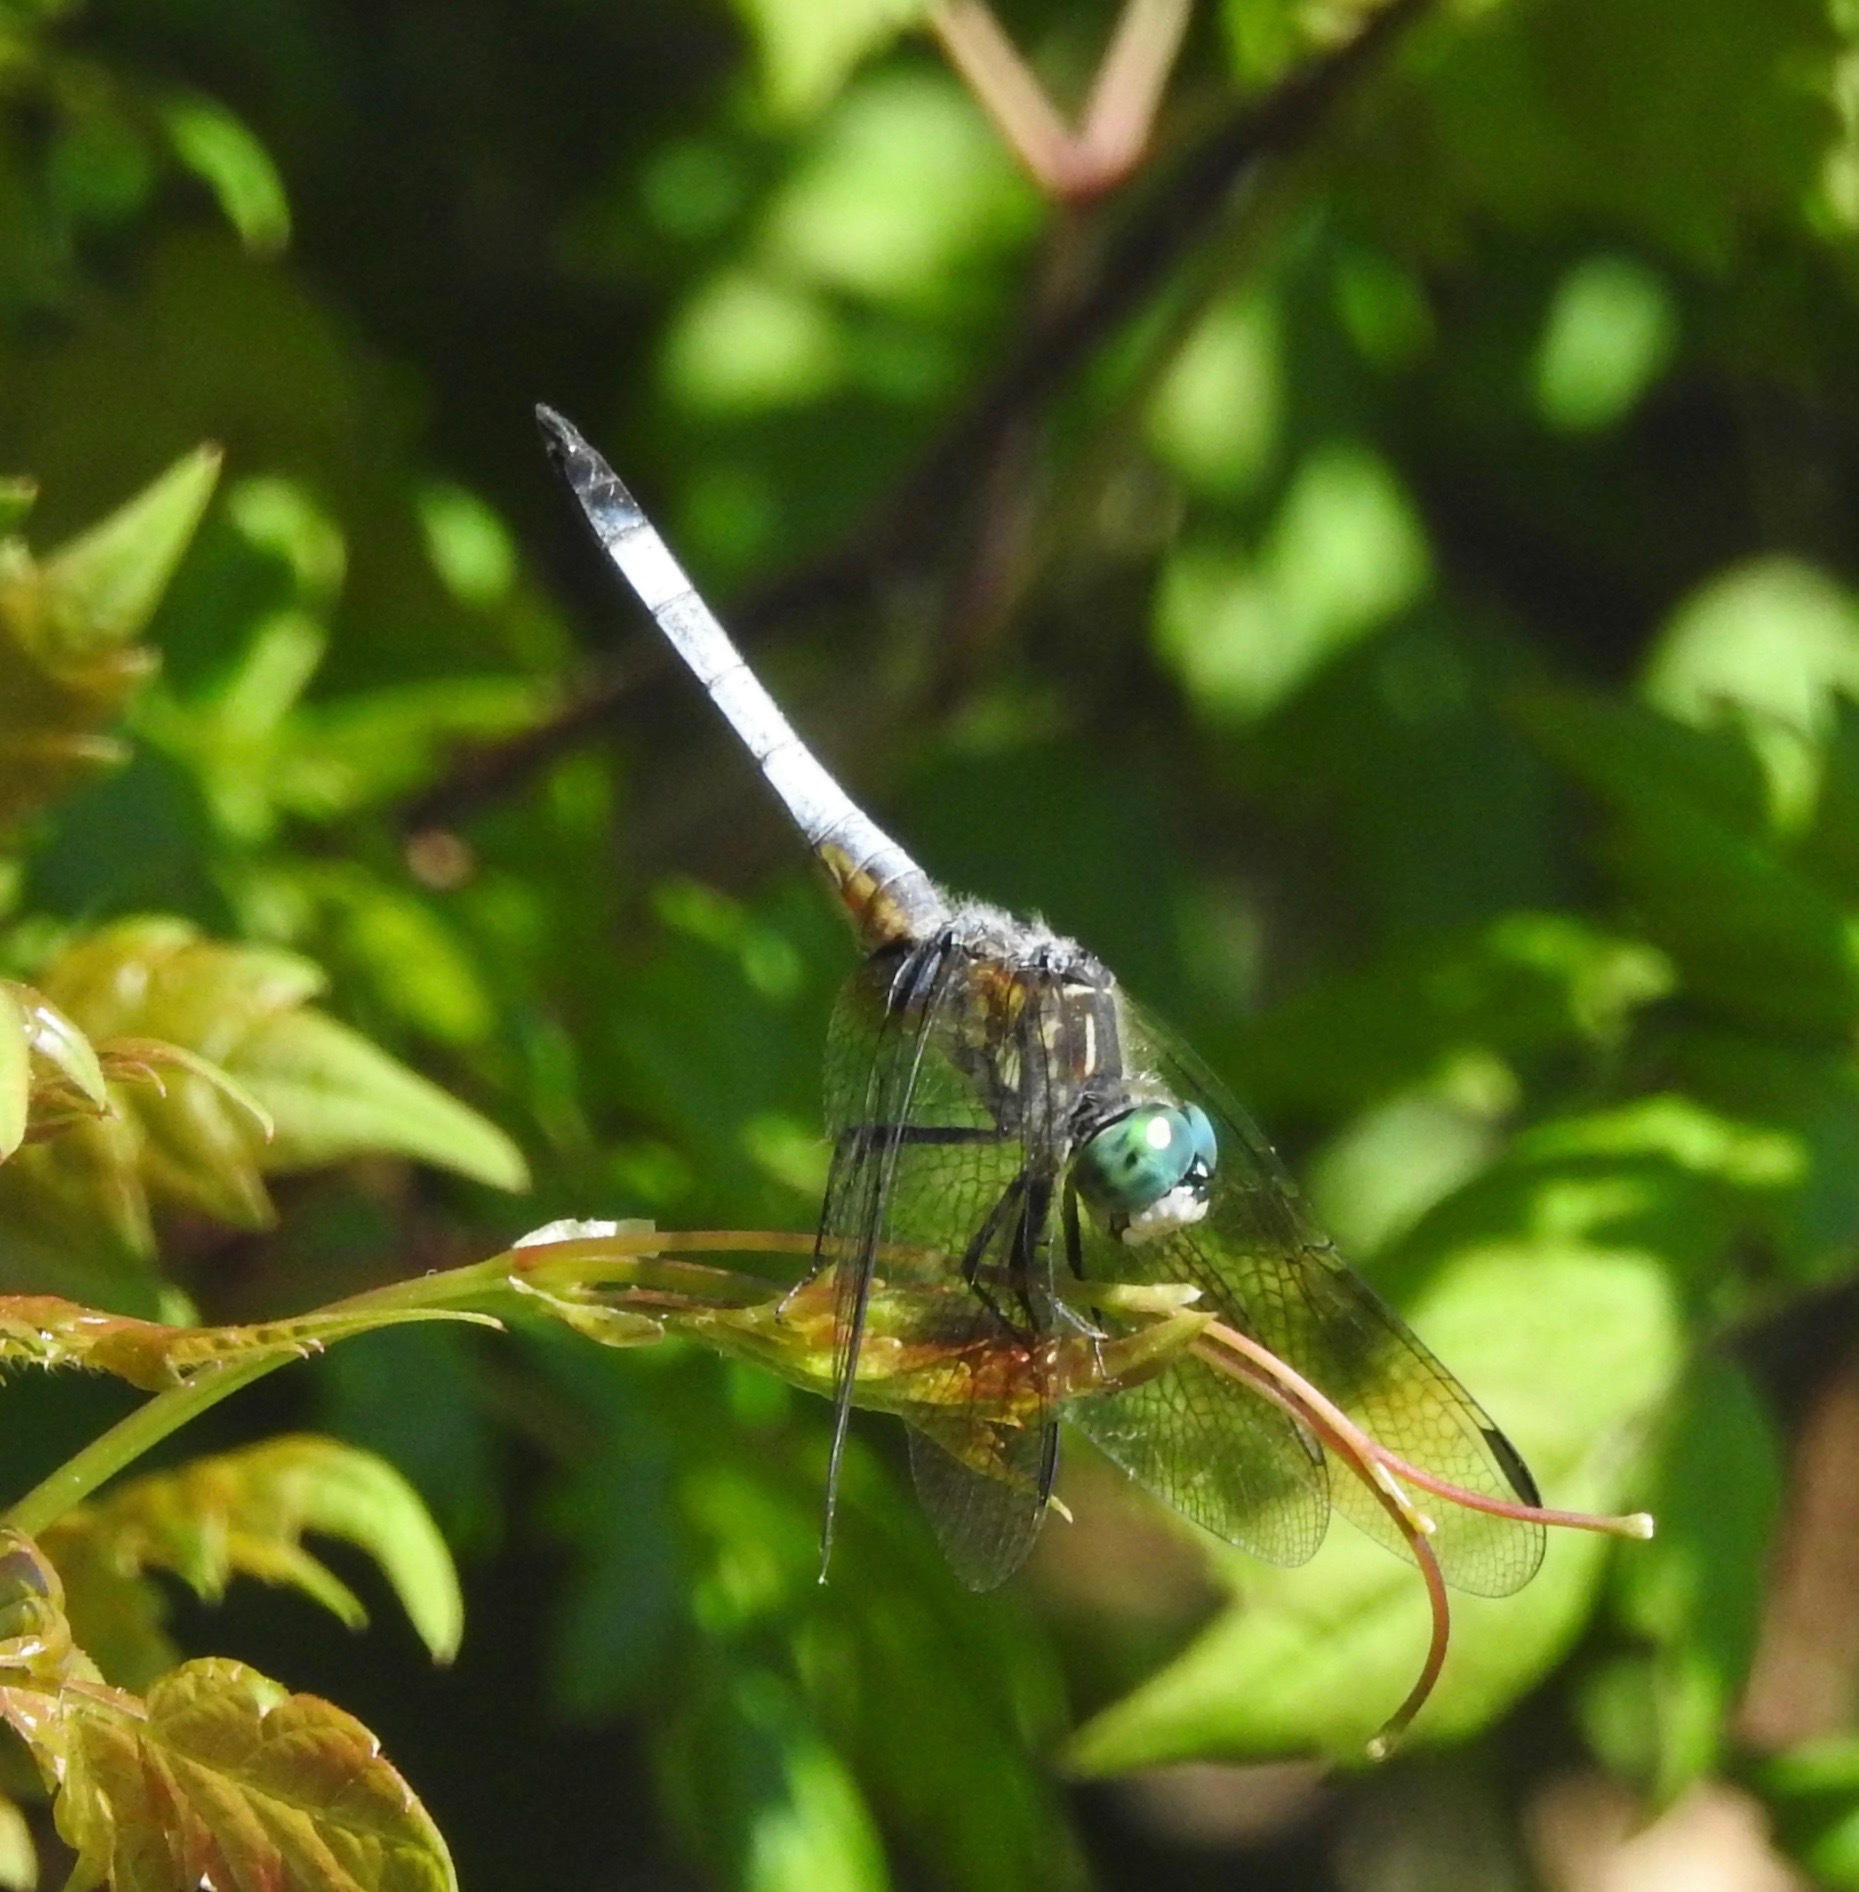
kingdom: Animalia
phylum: Arthropoda
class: Insecta
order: Odonata
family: Libellulidae
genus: Pachydiplax
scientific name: Pachydiplax longipennis
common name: Blue dasher
